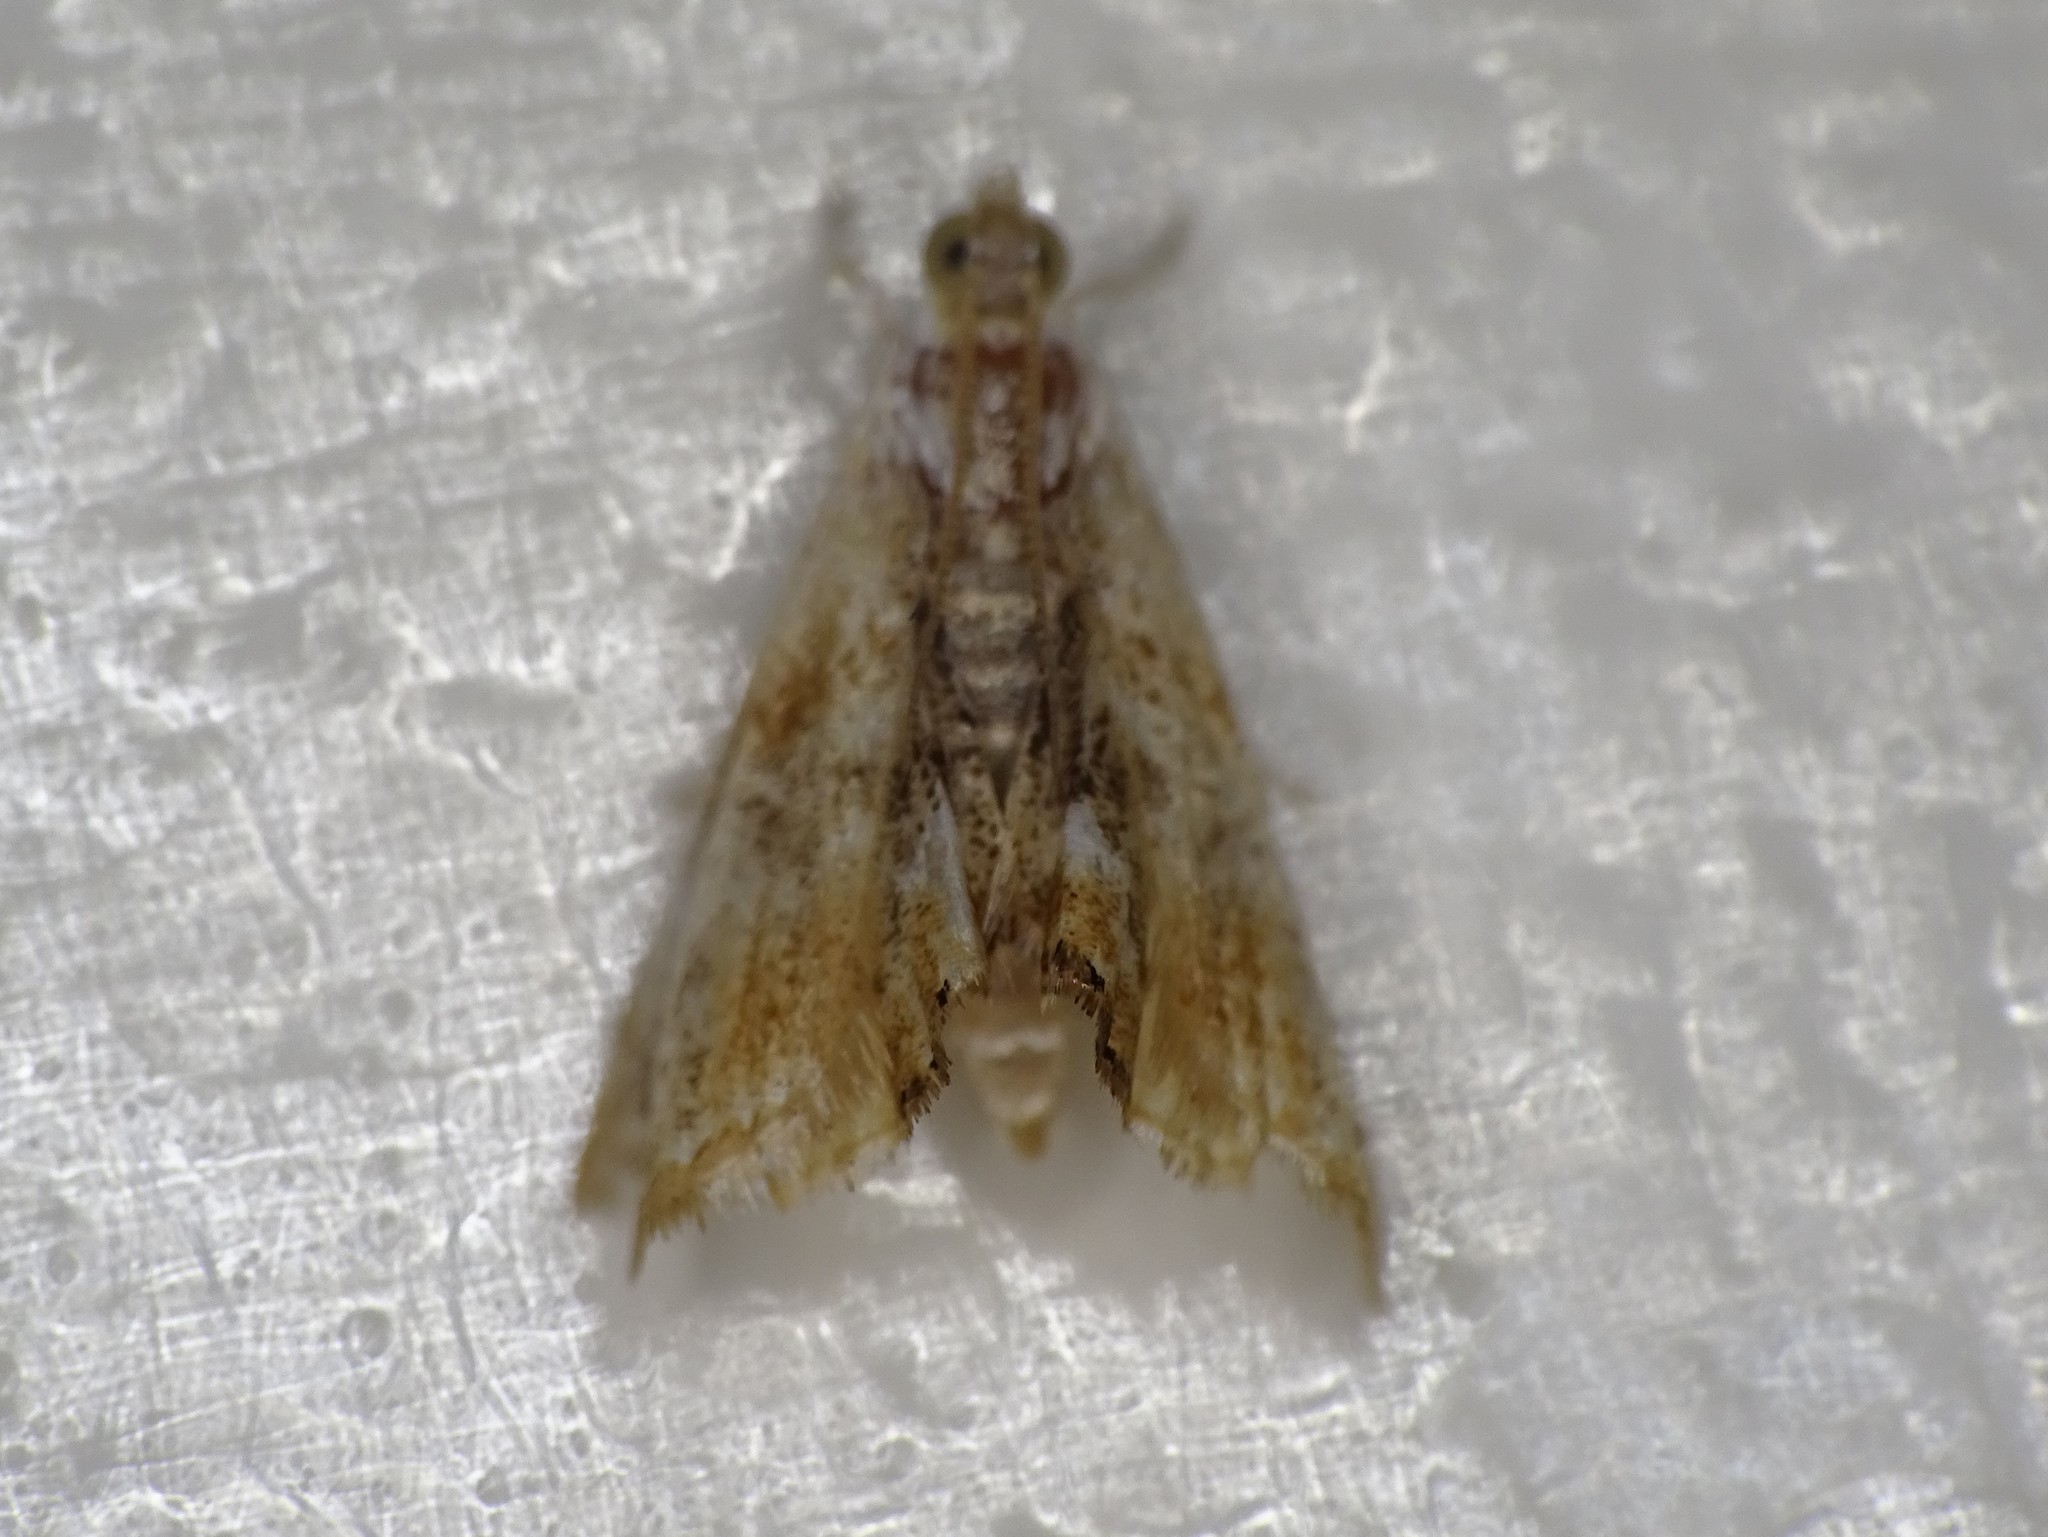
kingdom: Animalia
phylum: Arthropoda
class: Insecta
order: Lepidoptera
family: Crambidae
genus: Dicymolomia
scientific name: Dicymolomia julianalis
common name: Julia's dicymolomia moth
